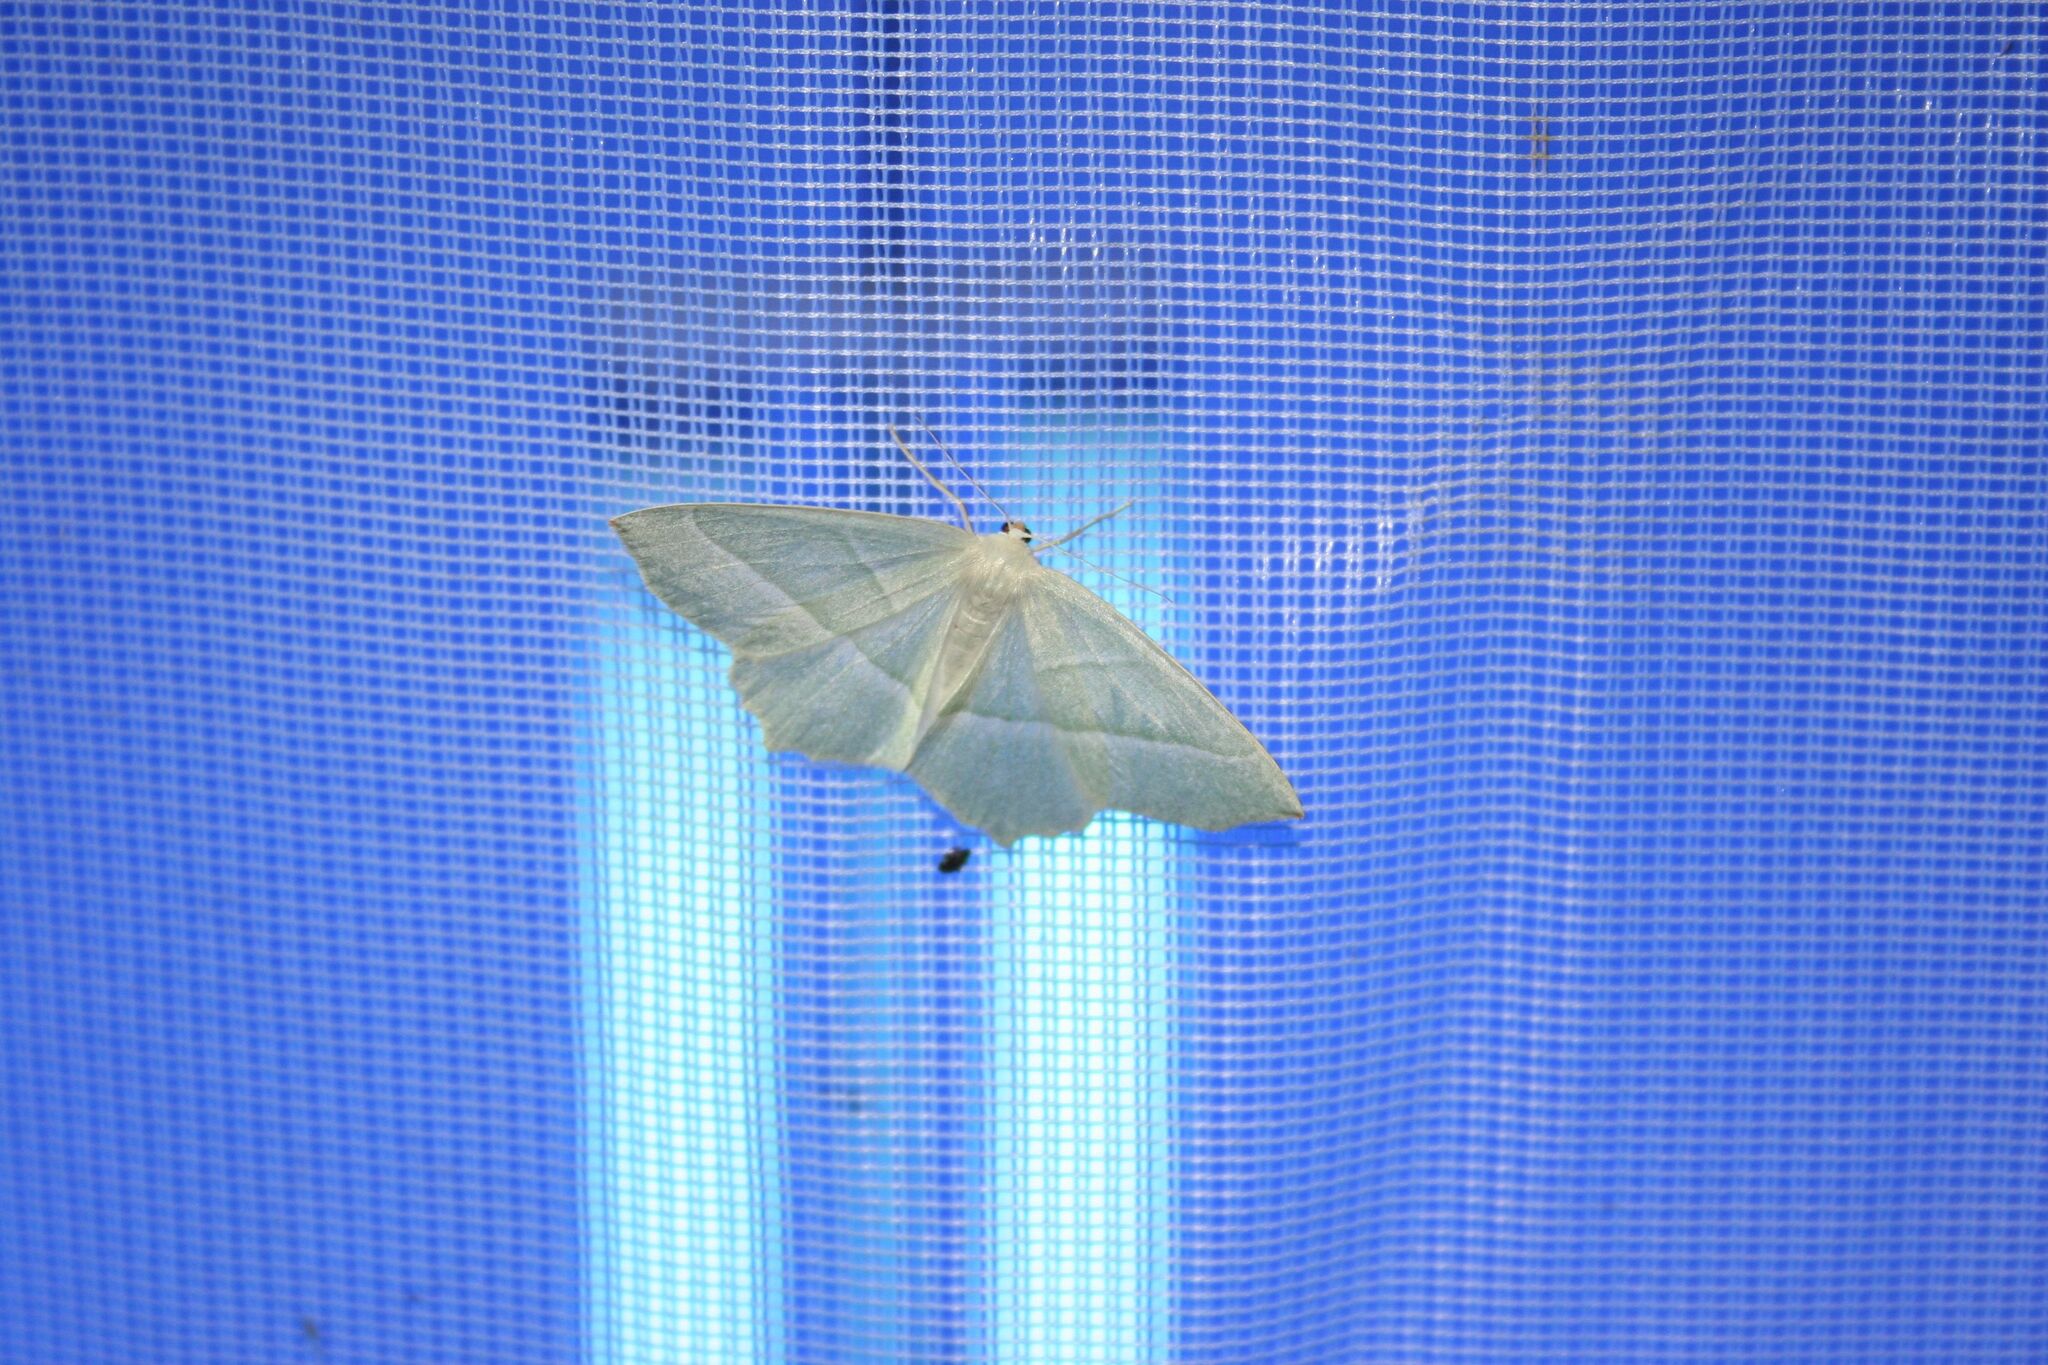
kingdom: Animalia
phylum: Arthropoda
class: Insecta
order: Lepidoptera
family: Geometridae
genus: Campaea
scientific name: Campaea margaritaria
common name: Light emerald
